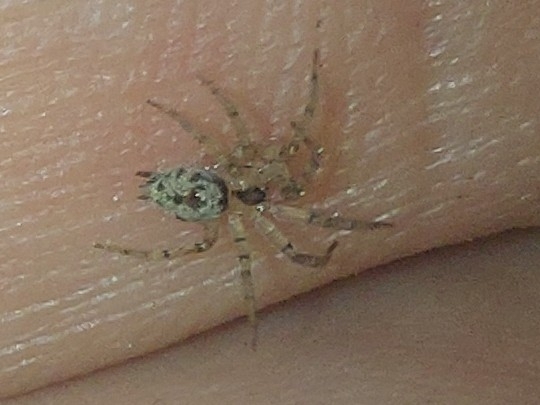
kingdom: Animalia
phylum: Arthropoda
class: Arachnida
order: Araneae
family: Oecobiidae
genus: Oecobius
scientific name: Oecobius navus
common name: Flatmesh weaver
